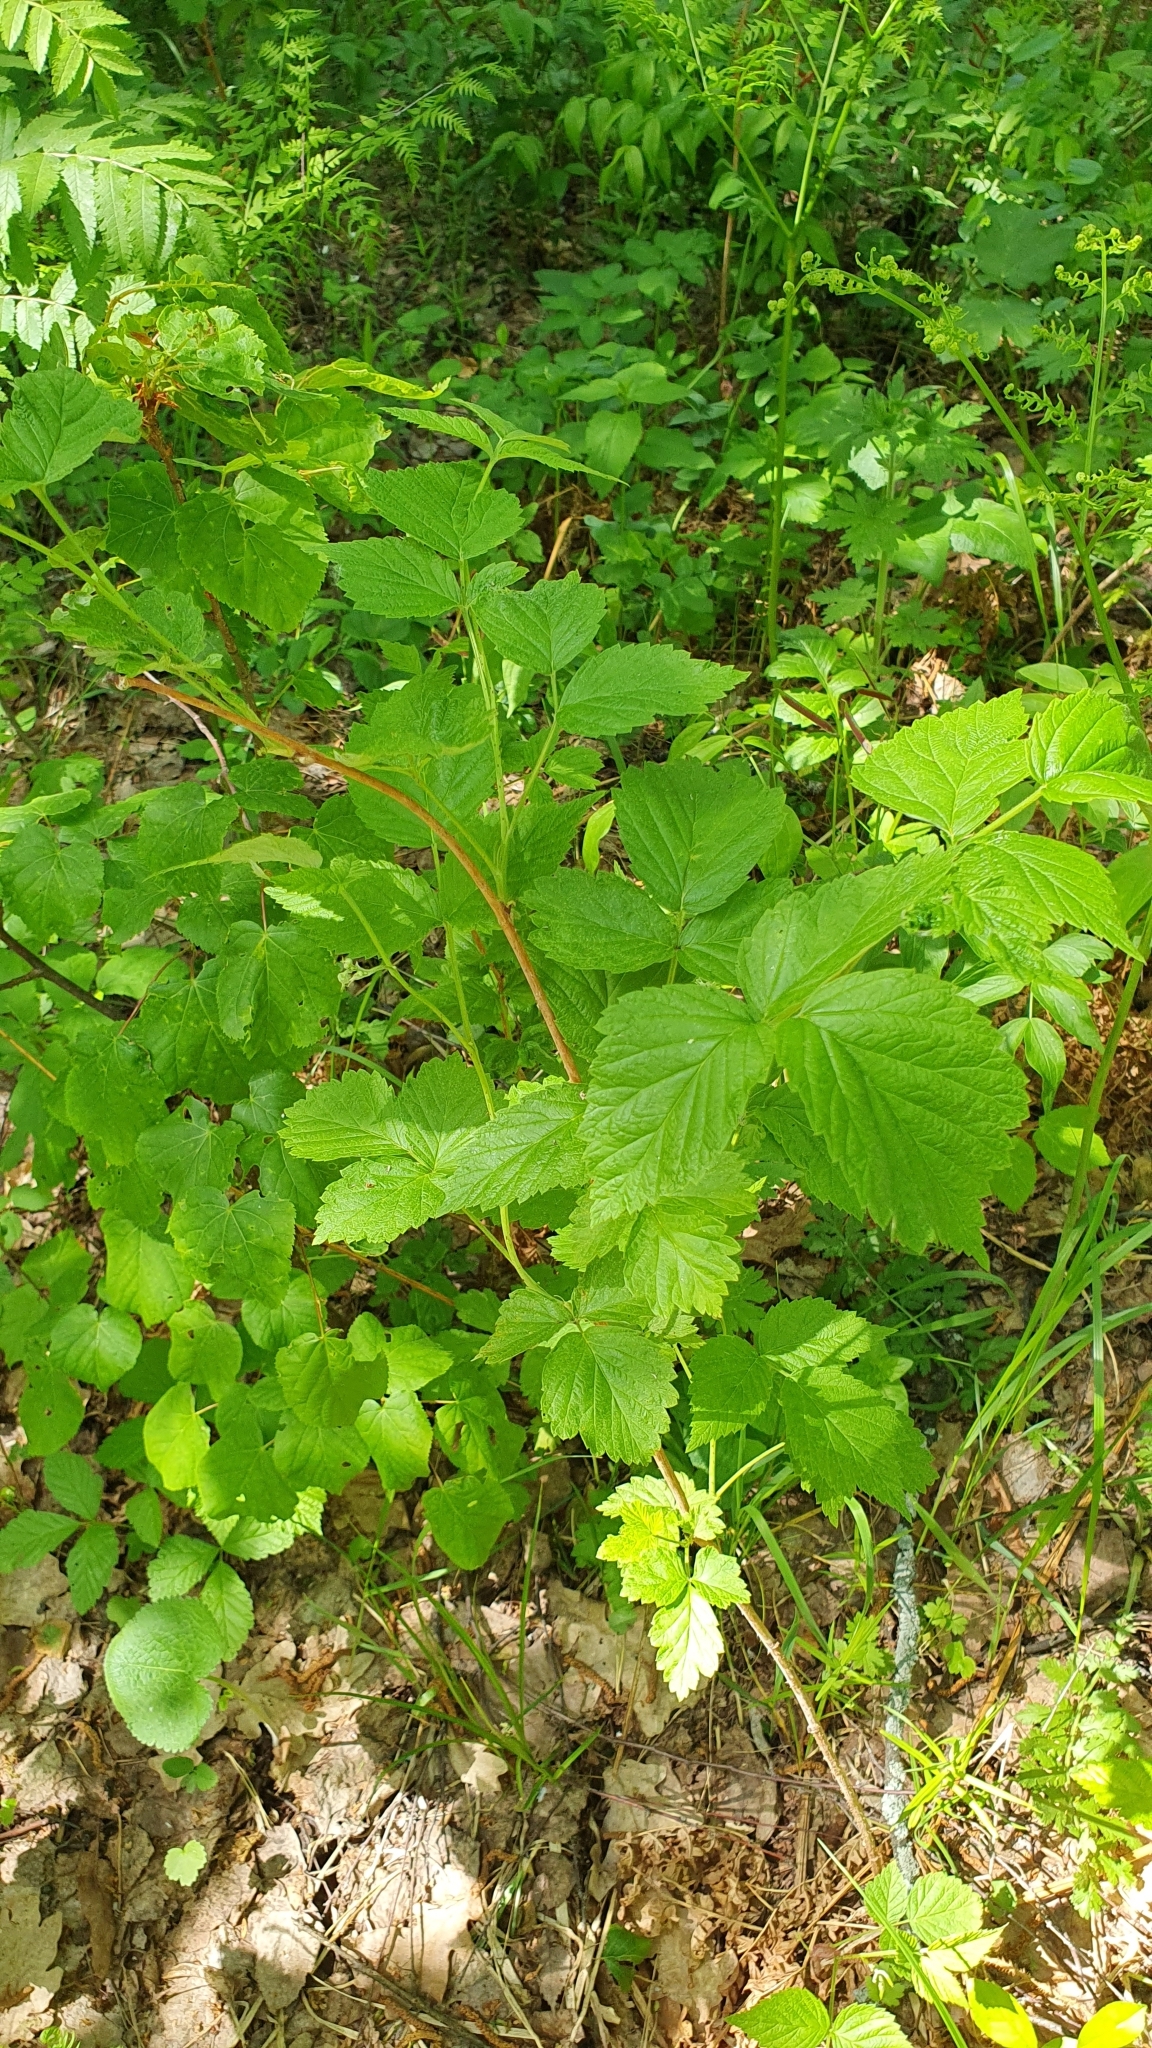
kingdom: Plantae
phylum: Tracheophyta
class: Magnoliopsida
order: Rosales
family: Rosaceae
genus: Rubus
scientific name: Rubus idaeus
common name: Raspberry
